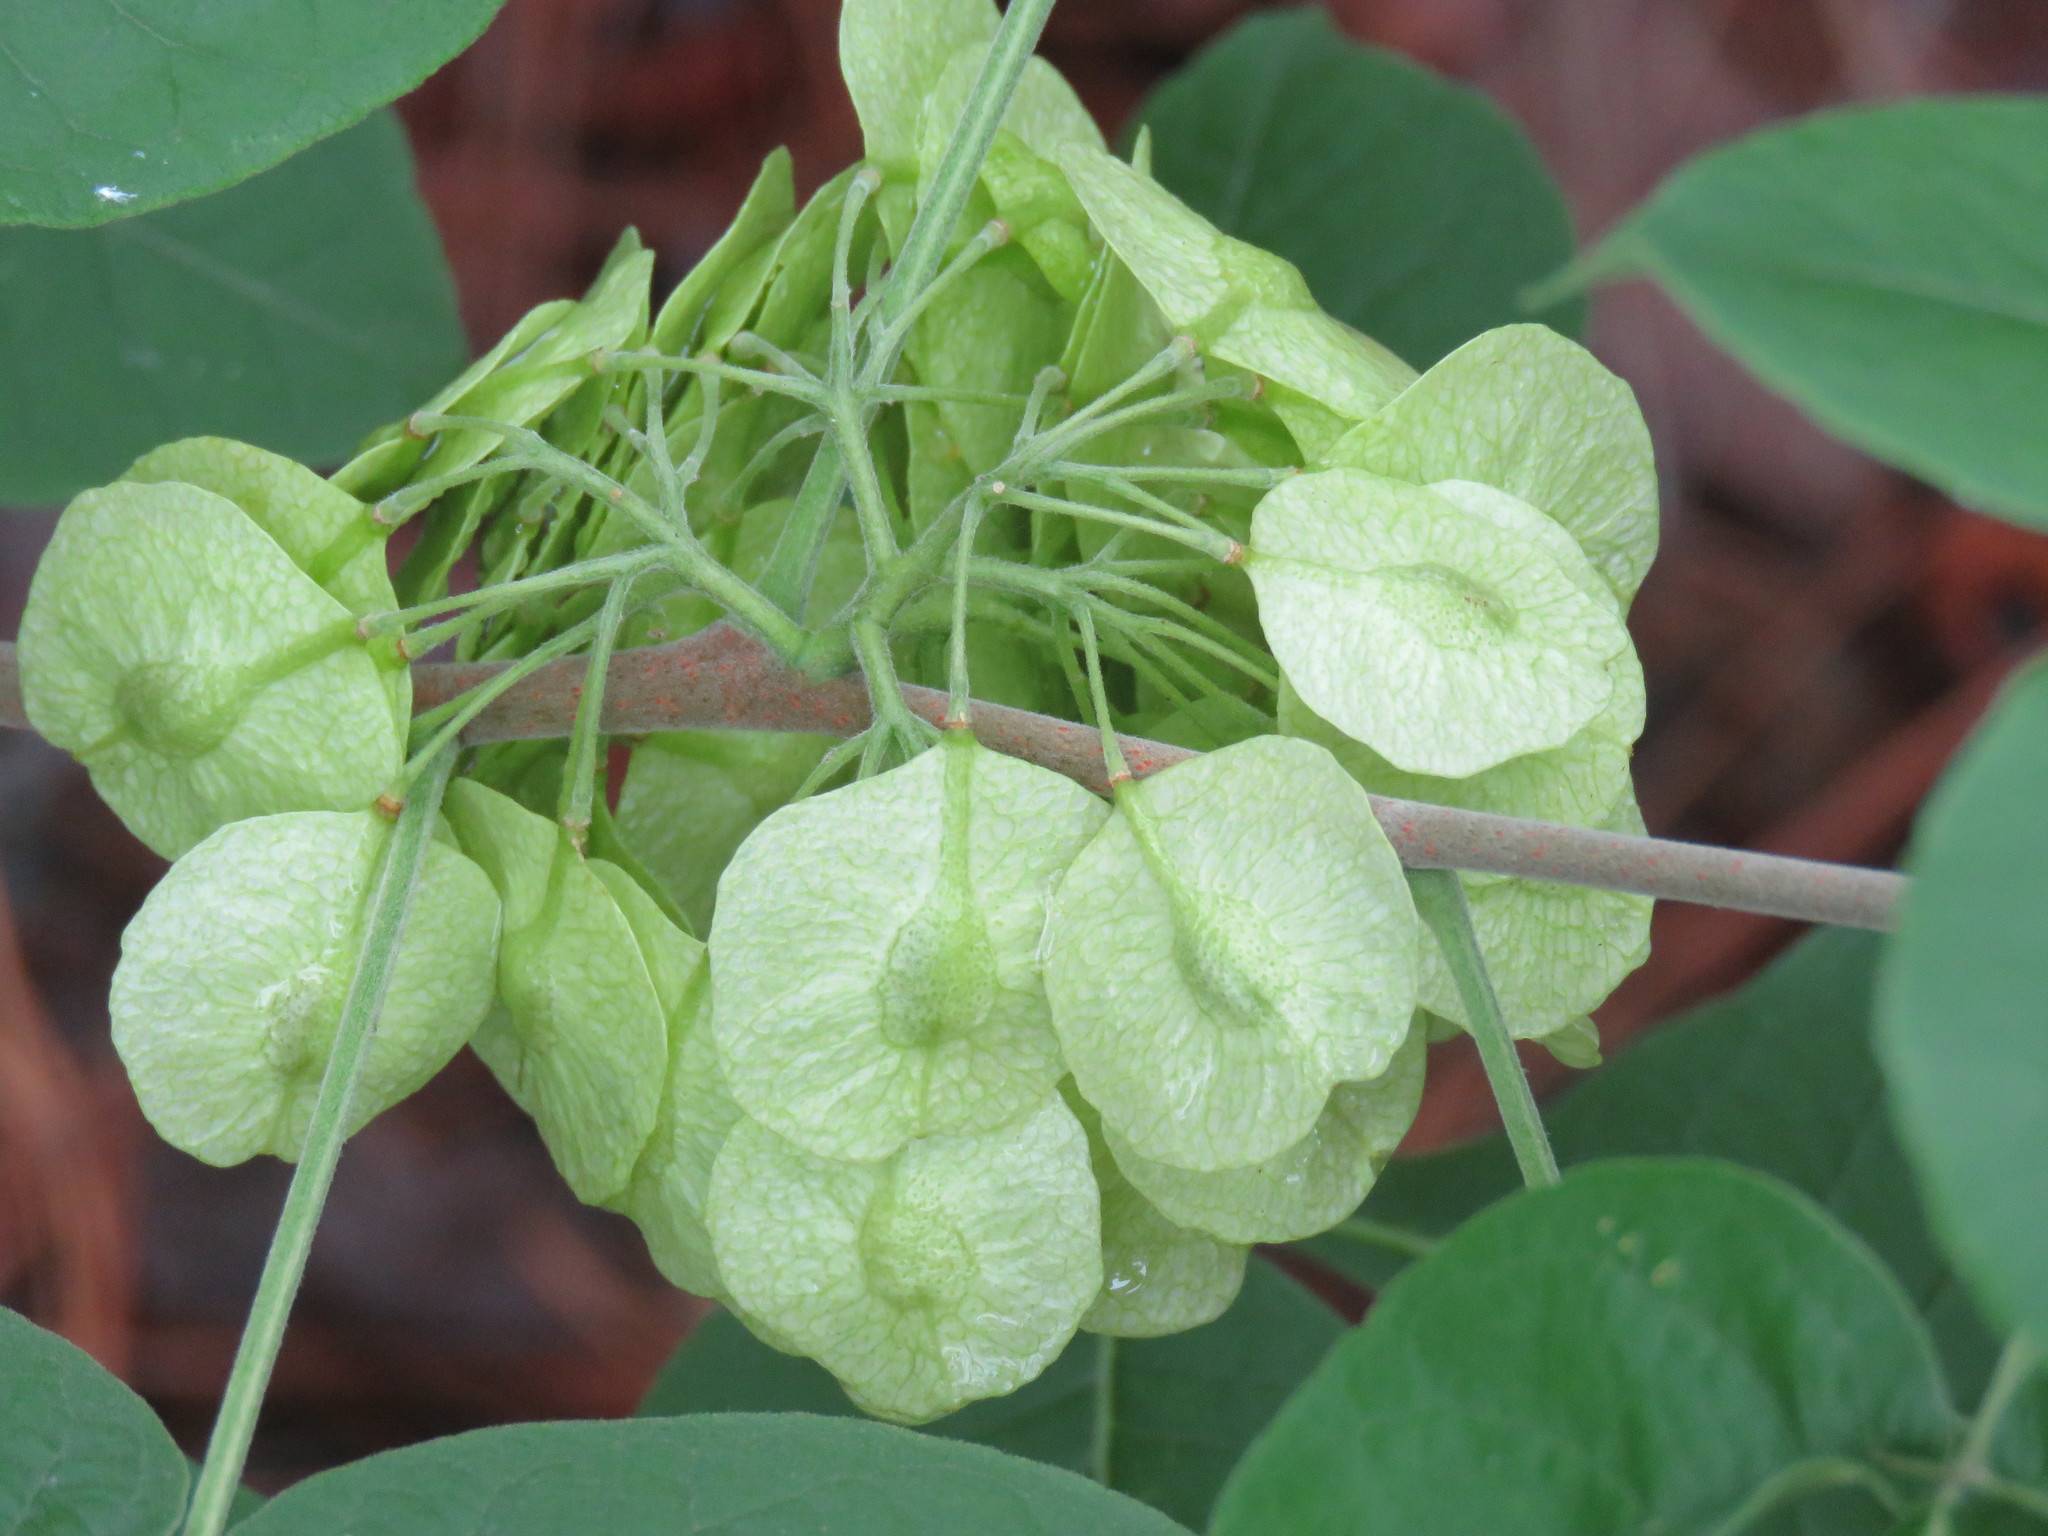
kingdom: Plantae
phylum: Tracheophyta
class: Magnoliopsida
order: Sapindales
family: Rutaceae
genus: Ptelea
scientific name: Ptelea trifoliata
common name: Common hop-tree
